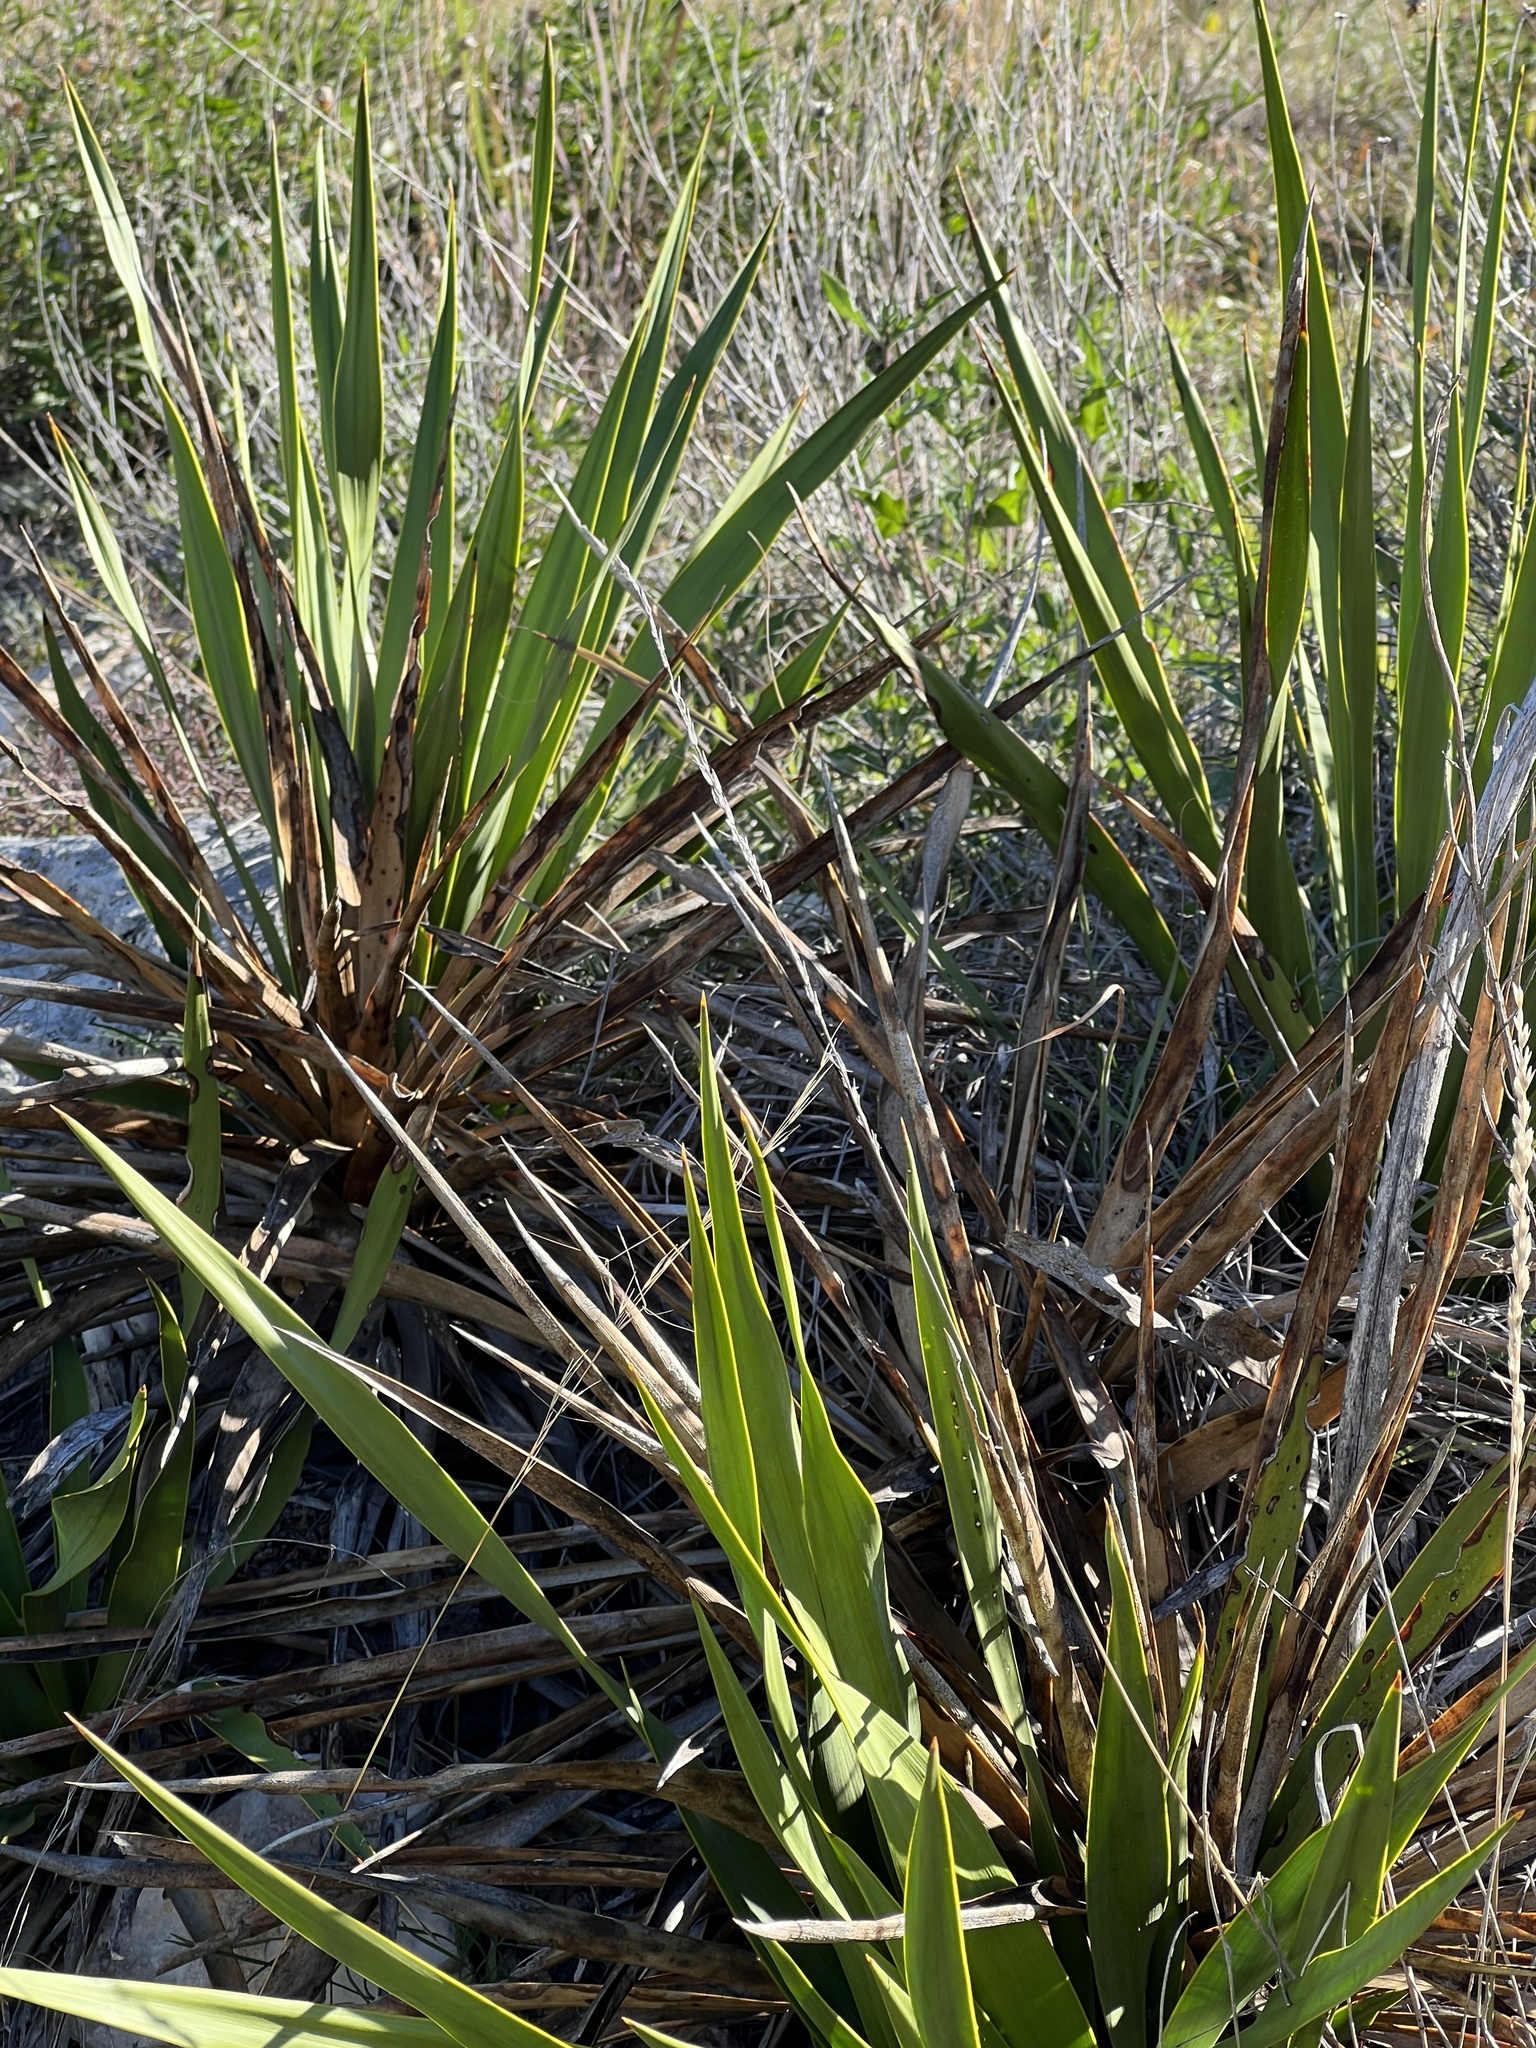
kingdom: Plantae
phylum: Tracheophyta
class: Liliopsida
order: Asparagales
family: Asparagaceae
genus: Yucca
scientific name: Yucca rupicola
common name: Twisted-leaf spanish-dagger
